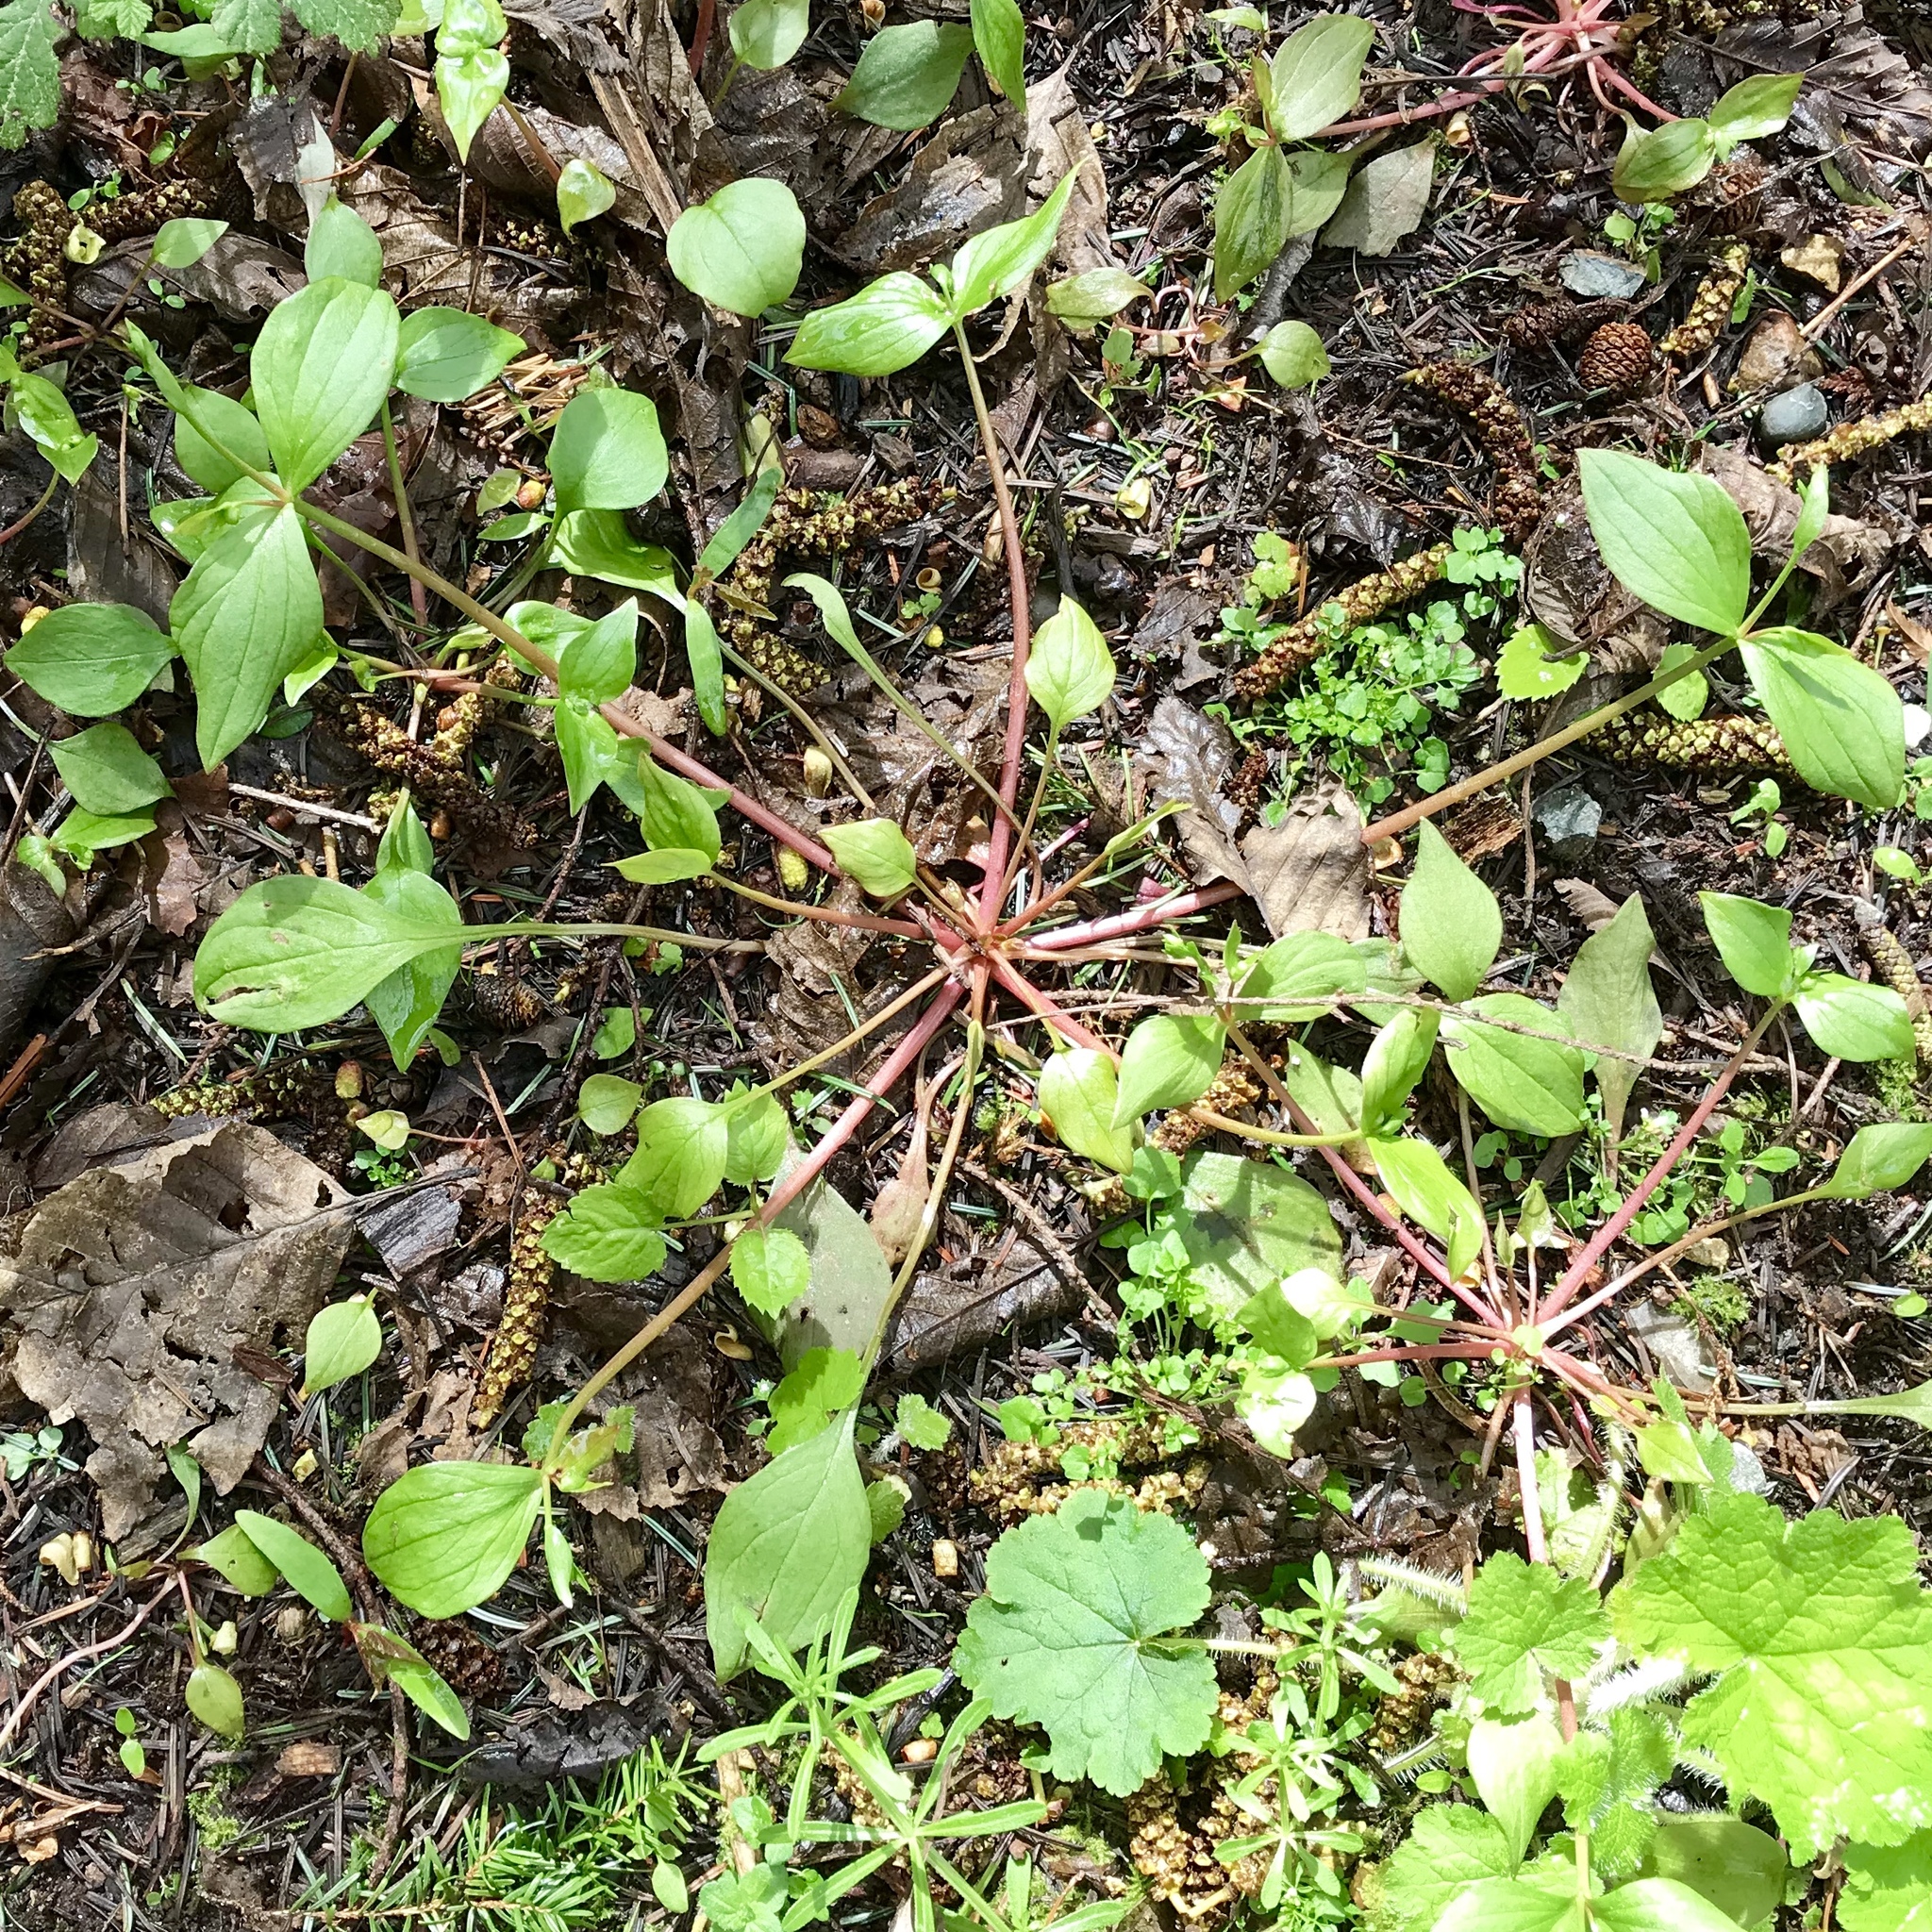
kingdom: Plantae
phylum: Tracheophyta
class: Magnoliopsida
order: Caryophyllales
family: Montiaceae
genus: Claytonia
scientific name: Claytonia sibirica
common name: Pink purslane
